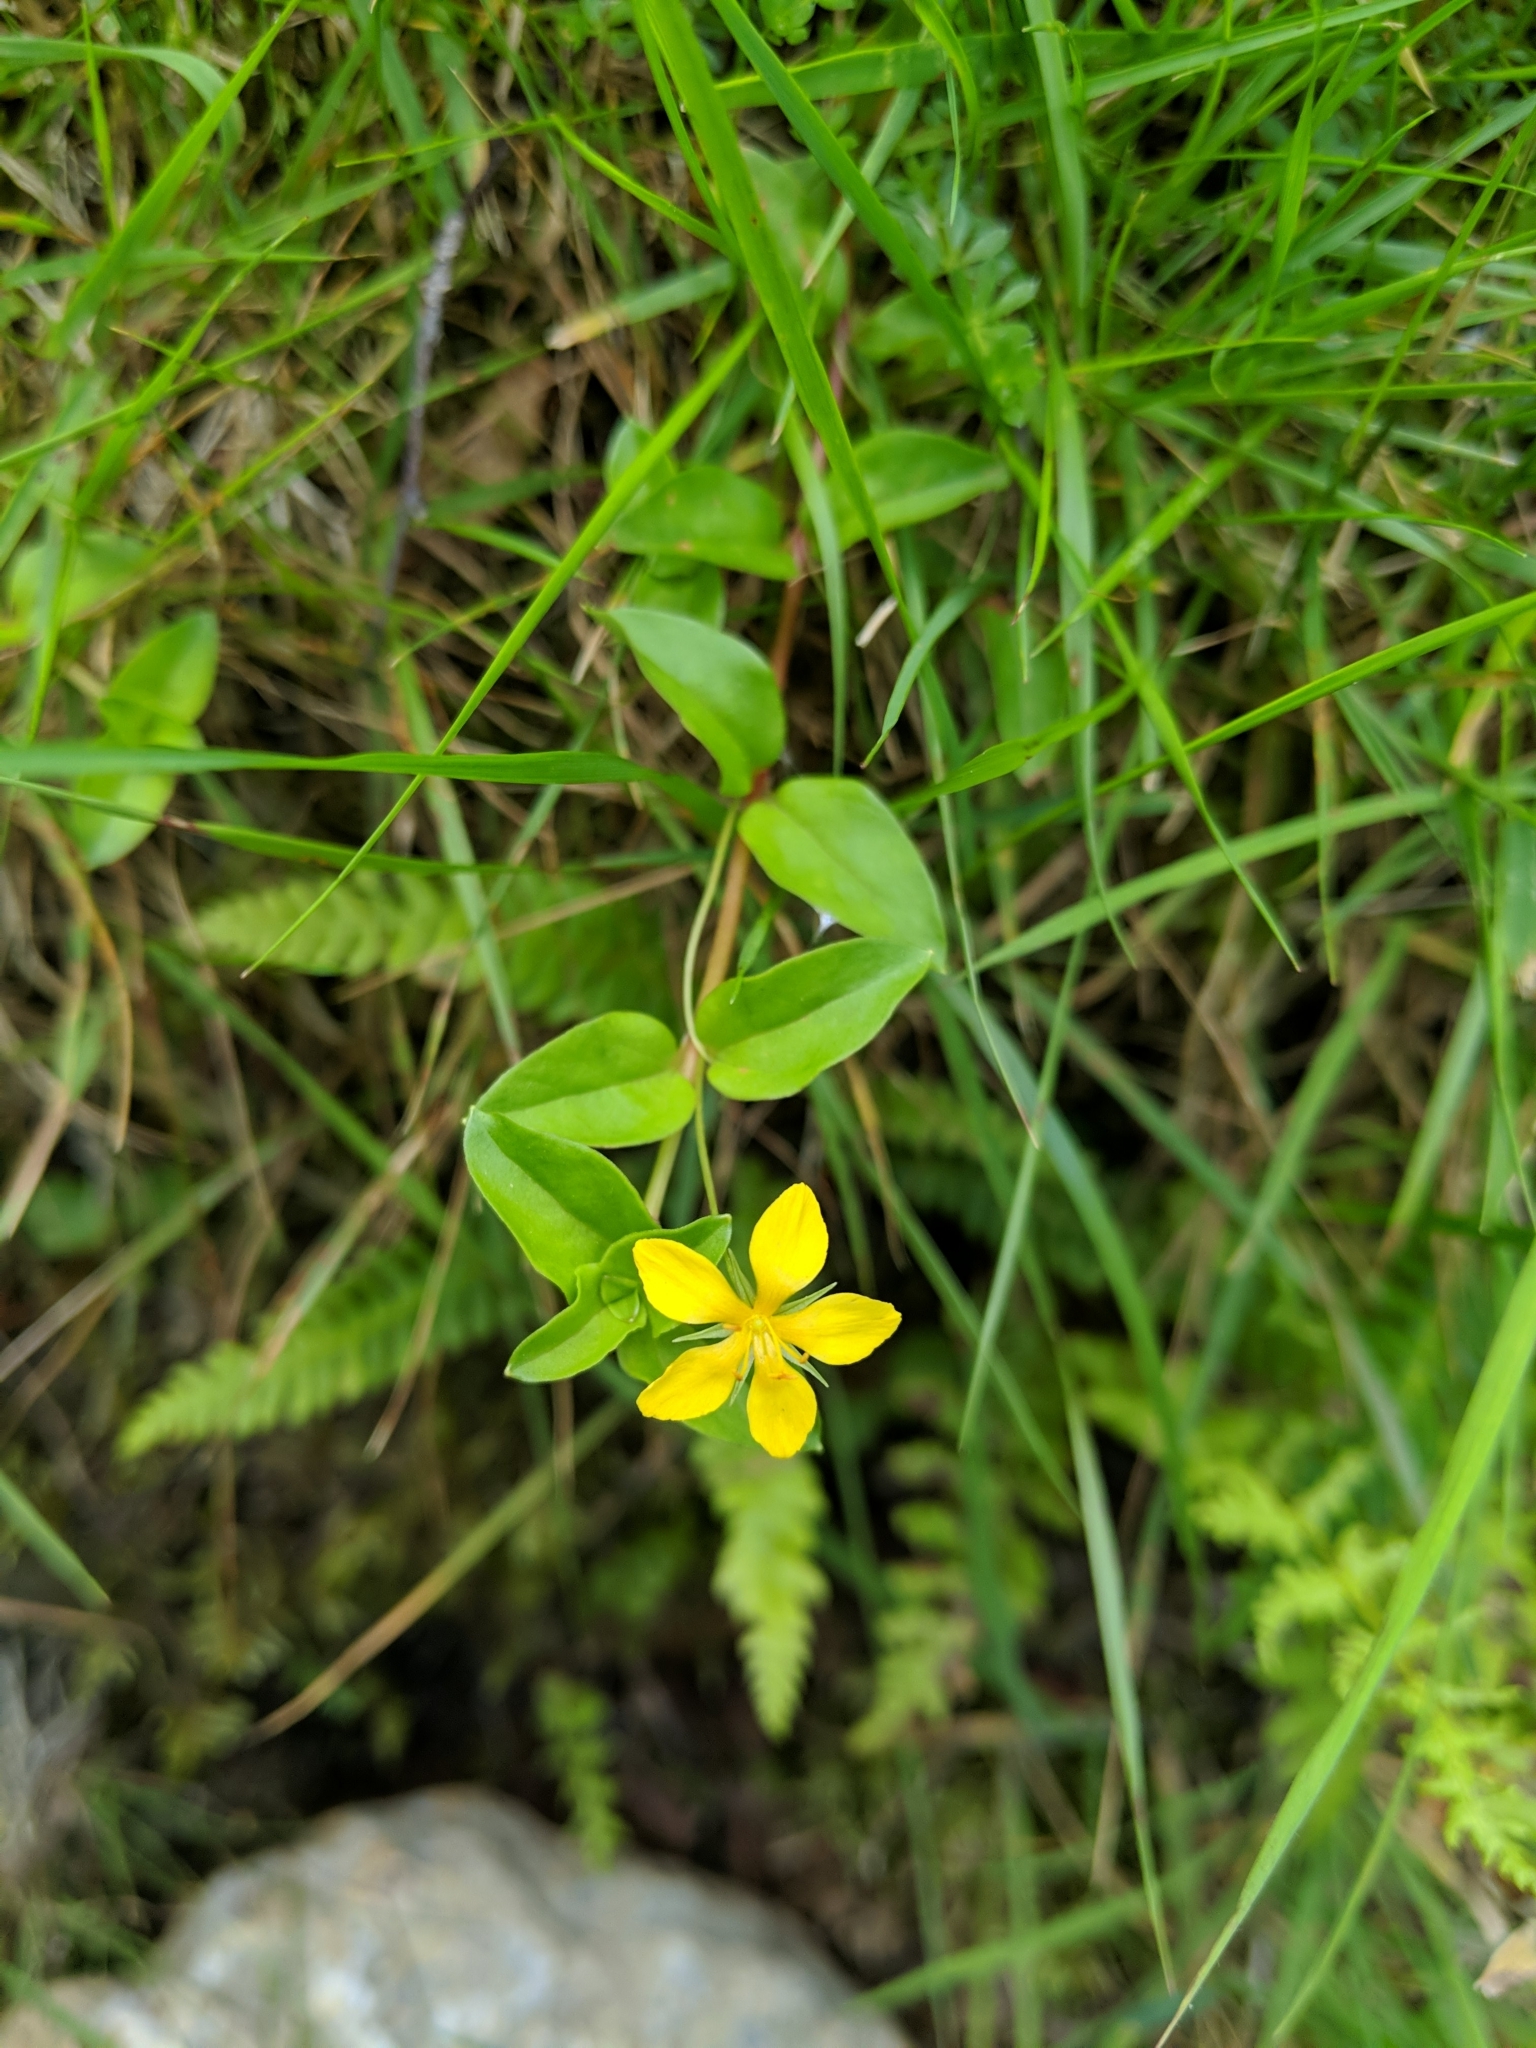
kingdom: Plantae
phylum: Tracheophyta
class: Magnoliopsida
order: Ericales
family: Primulaceae
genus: Lysimachia
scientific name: Lysimachia nemorum
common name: Yellow pimpernel
